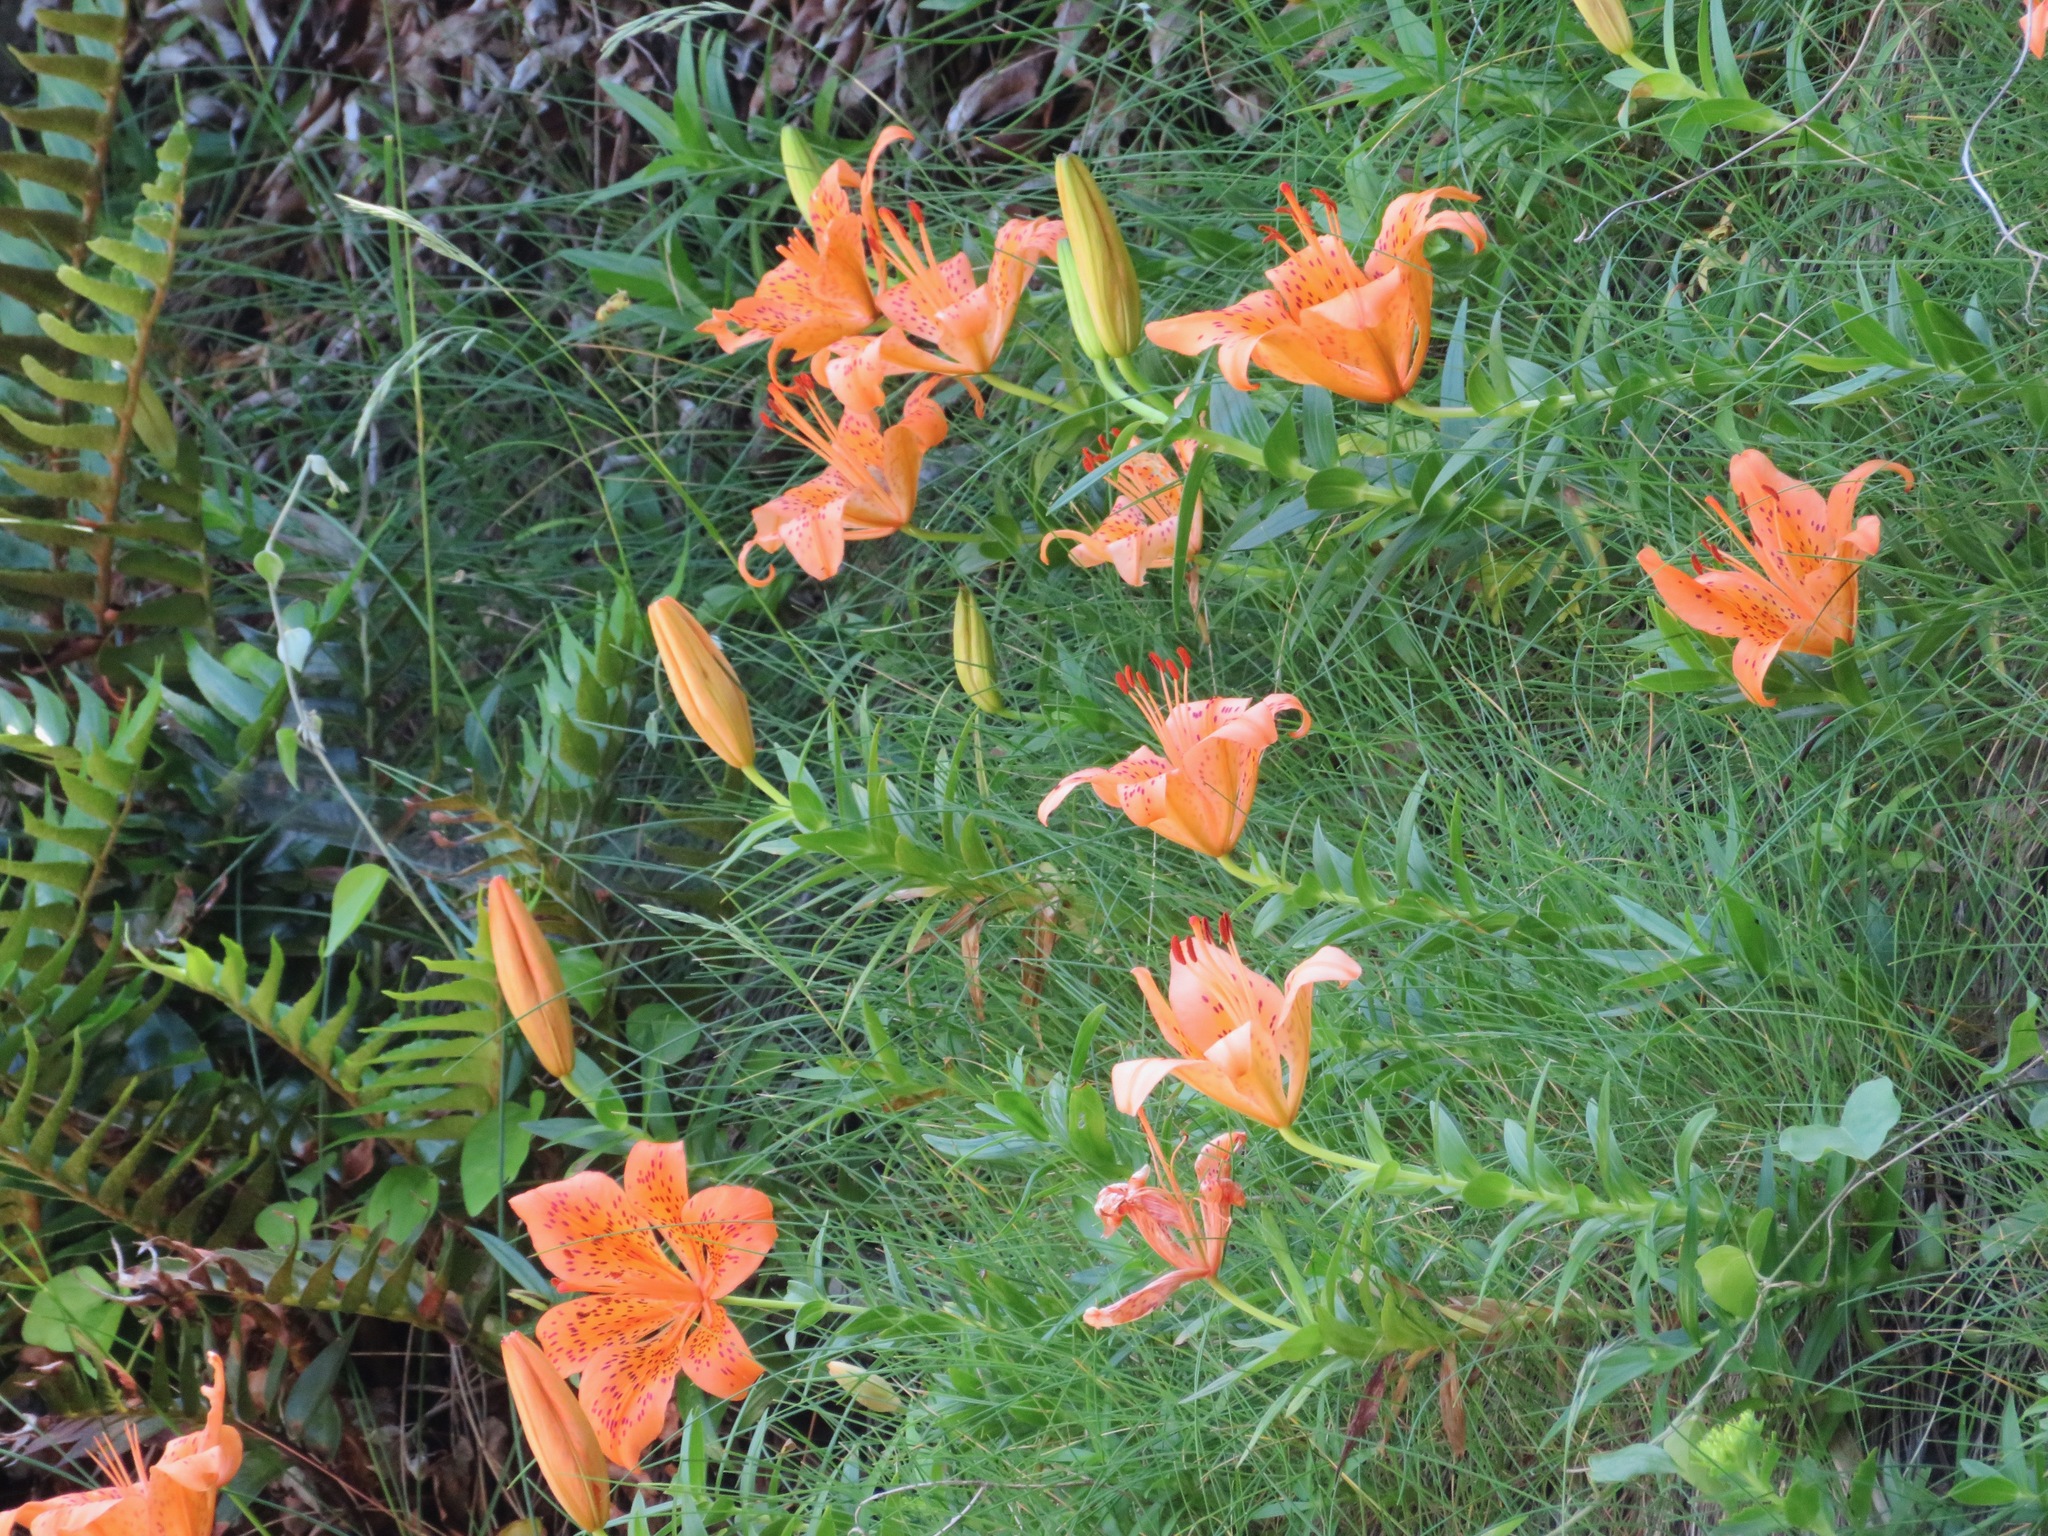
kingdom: Plantae
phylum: Tracheophyta
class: Liliopsida
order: Liliales
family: Liliaceae
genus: Lilium
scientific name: Lilium maculatum
